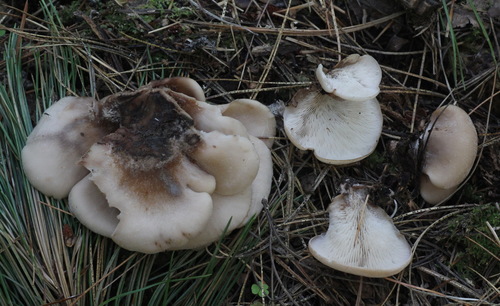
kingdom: Fungi
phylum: Basidiomycota
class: Agaricomycetes
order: Russulales
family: Auriscalpiaceae
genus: Lentinellus
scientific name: Lentinellus castoreus
